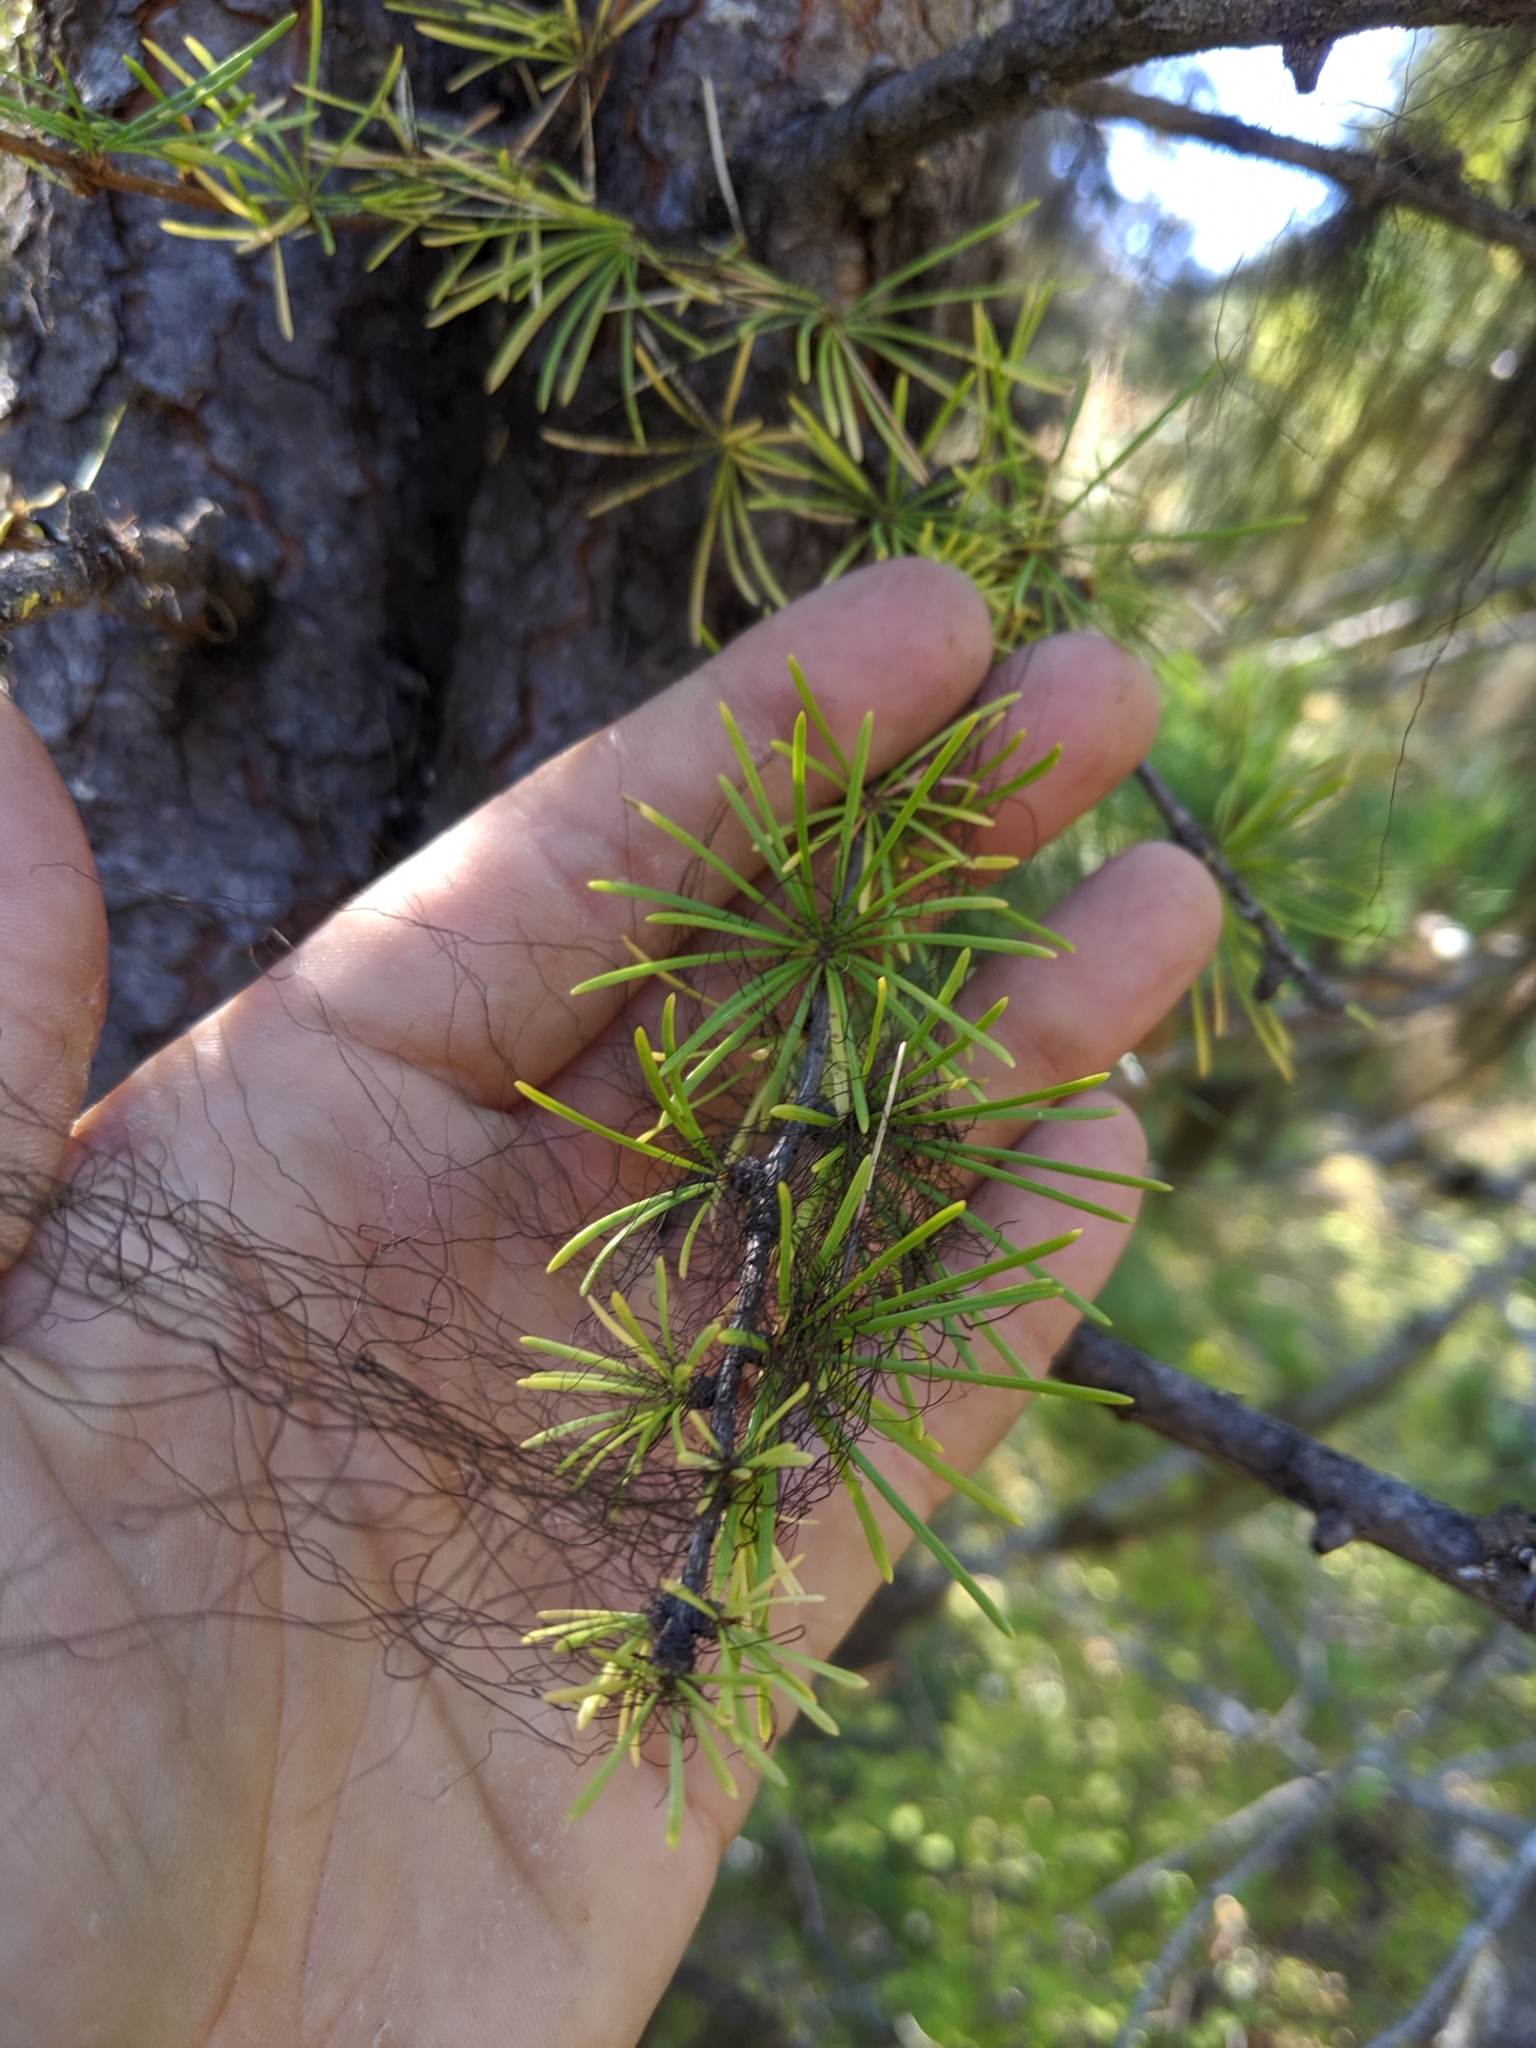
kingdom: Plantae
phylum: Tracheophyta
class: Pinopsida
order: Pinales
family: Pinaceae
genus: Larix
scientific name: Larix occidentalis
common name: Western larch
